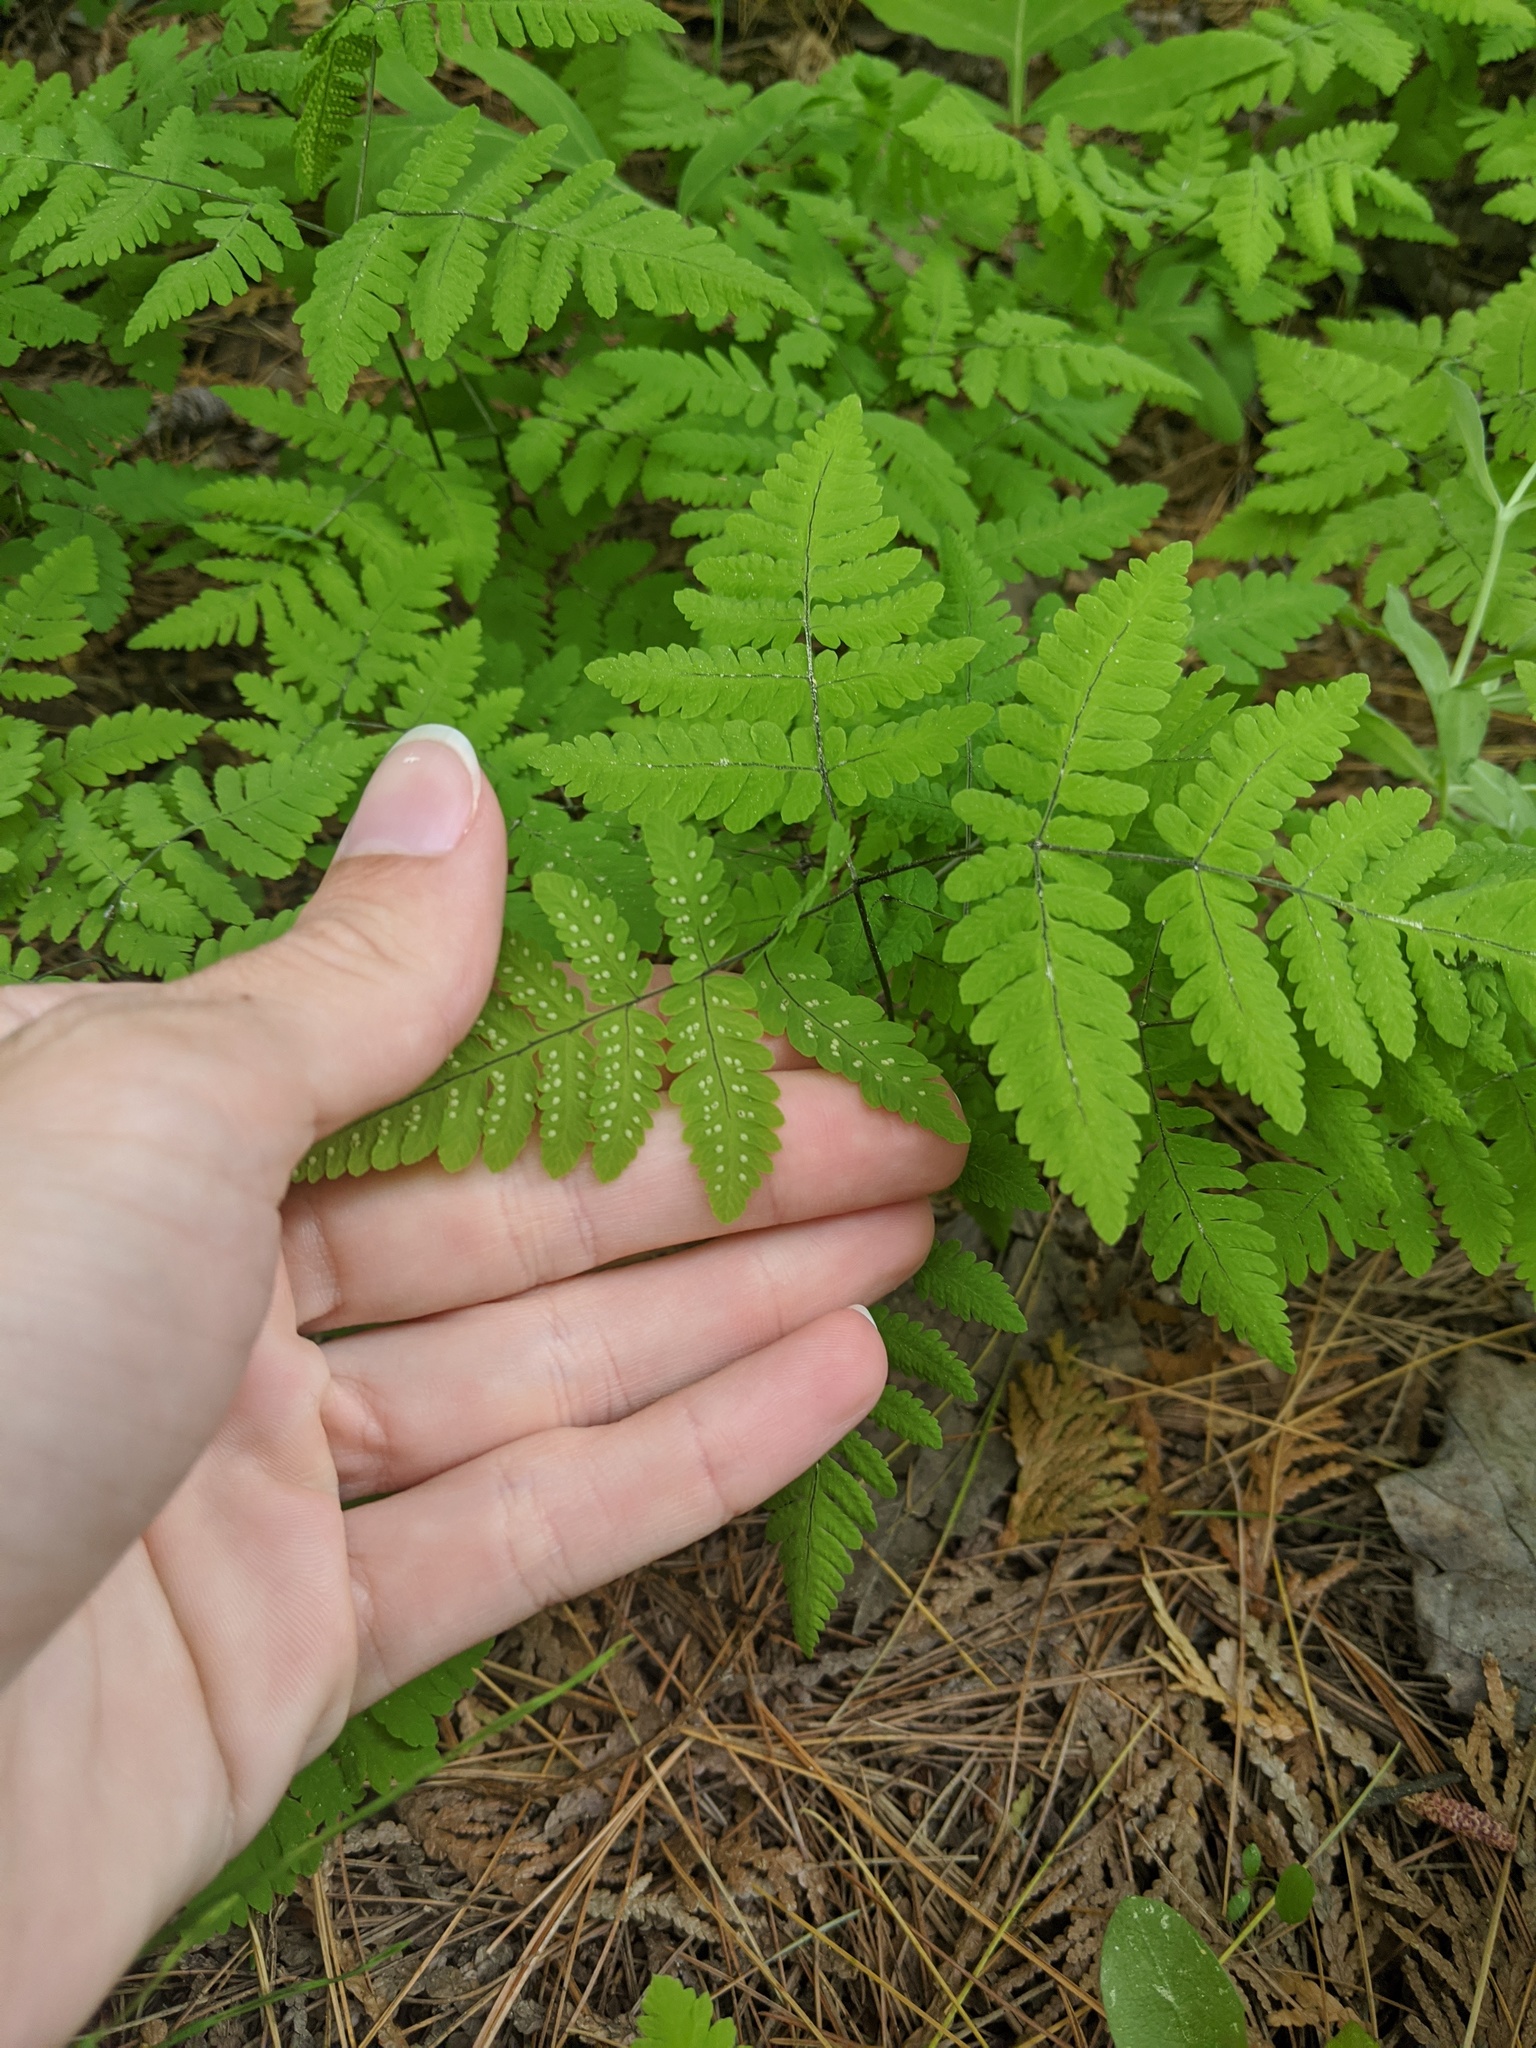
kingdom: Plantae
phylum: Tracheophyta
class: Polypodiopsida
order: Polypodiales
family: Cystopteridaceae
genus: Gymnocarpium
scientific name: Gymnocarpium dryopteris
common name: Oak fern
